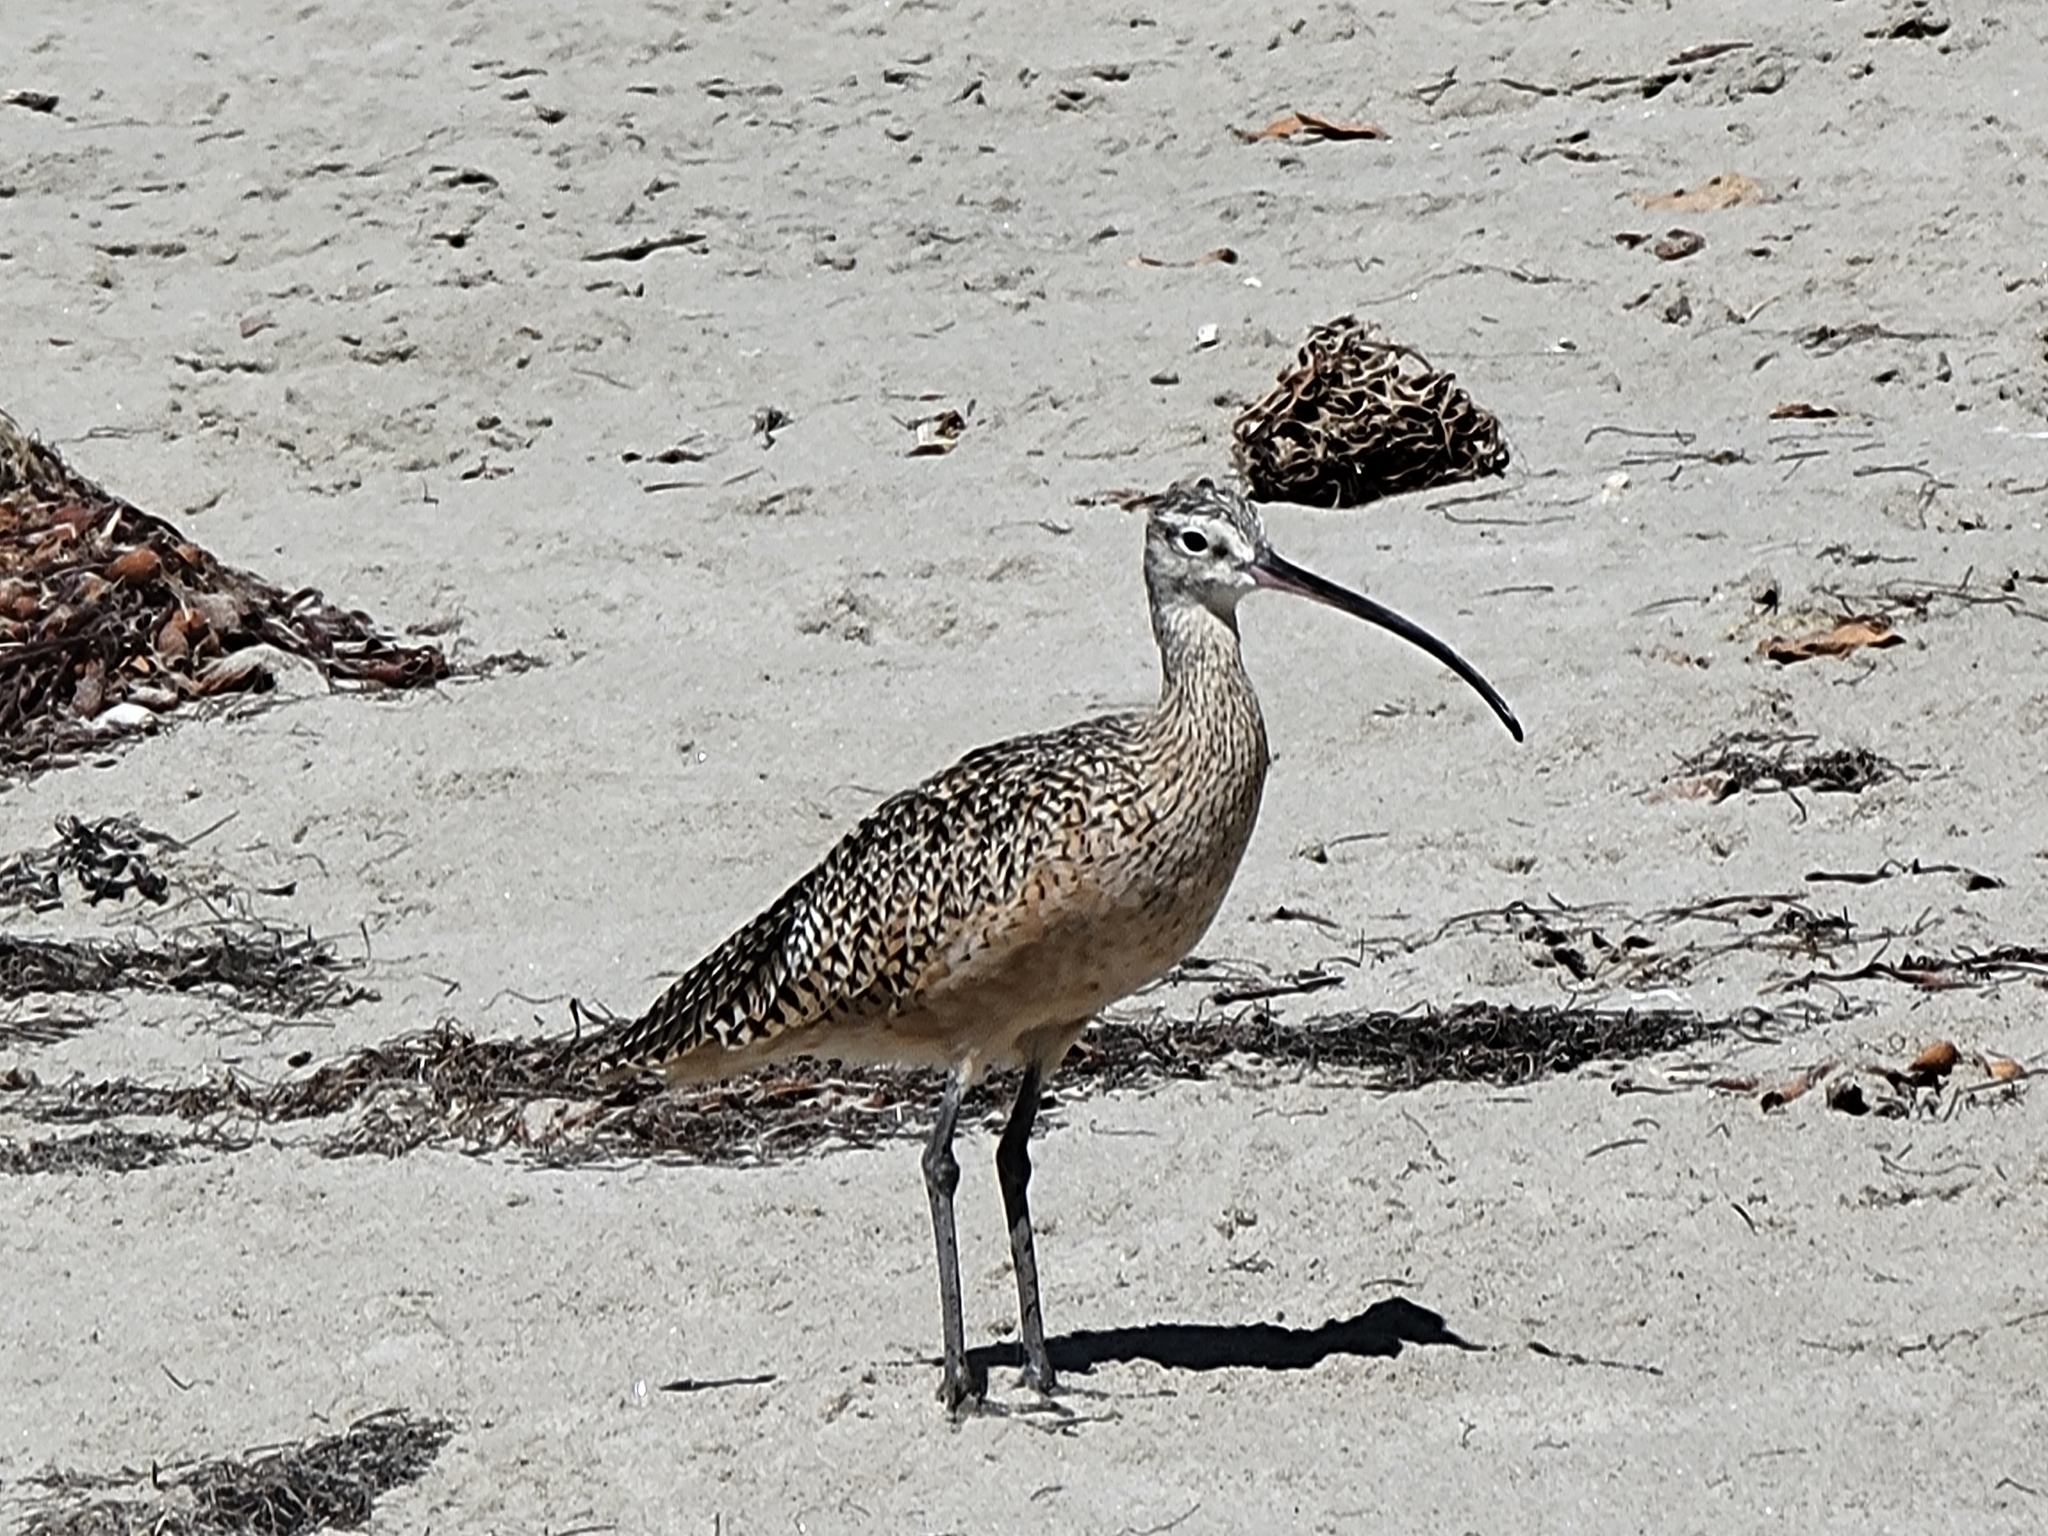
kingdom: Animalia
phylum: Chordata
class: Aves
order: Charadriiformes
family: Scolopacidae
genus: Numenius
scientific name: Numenius americanus
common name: Long-billed curlew
